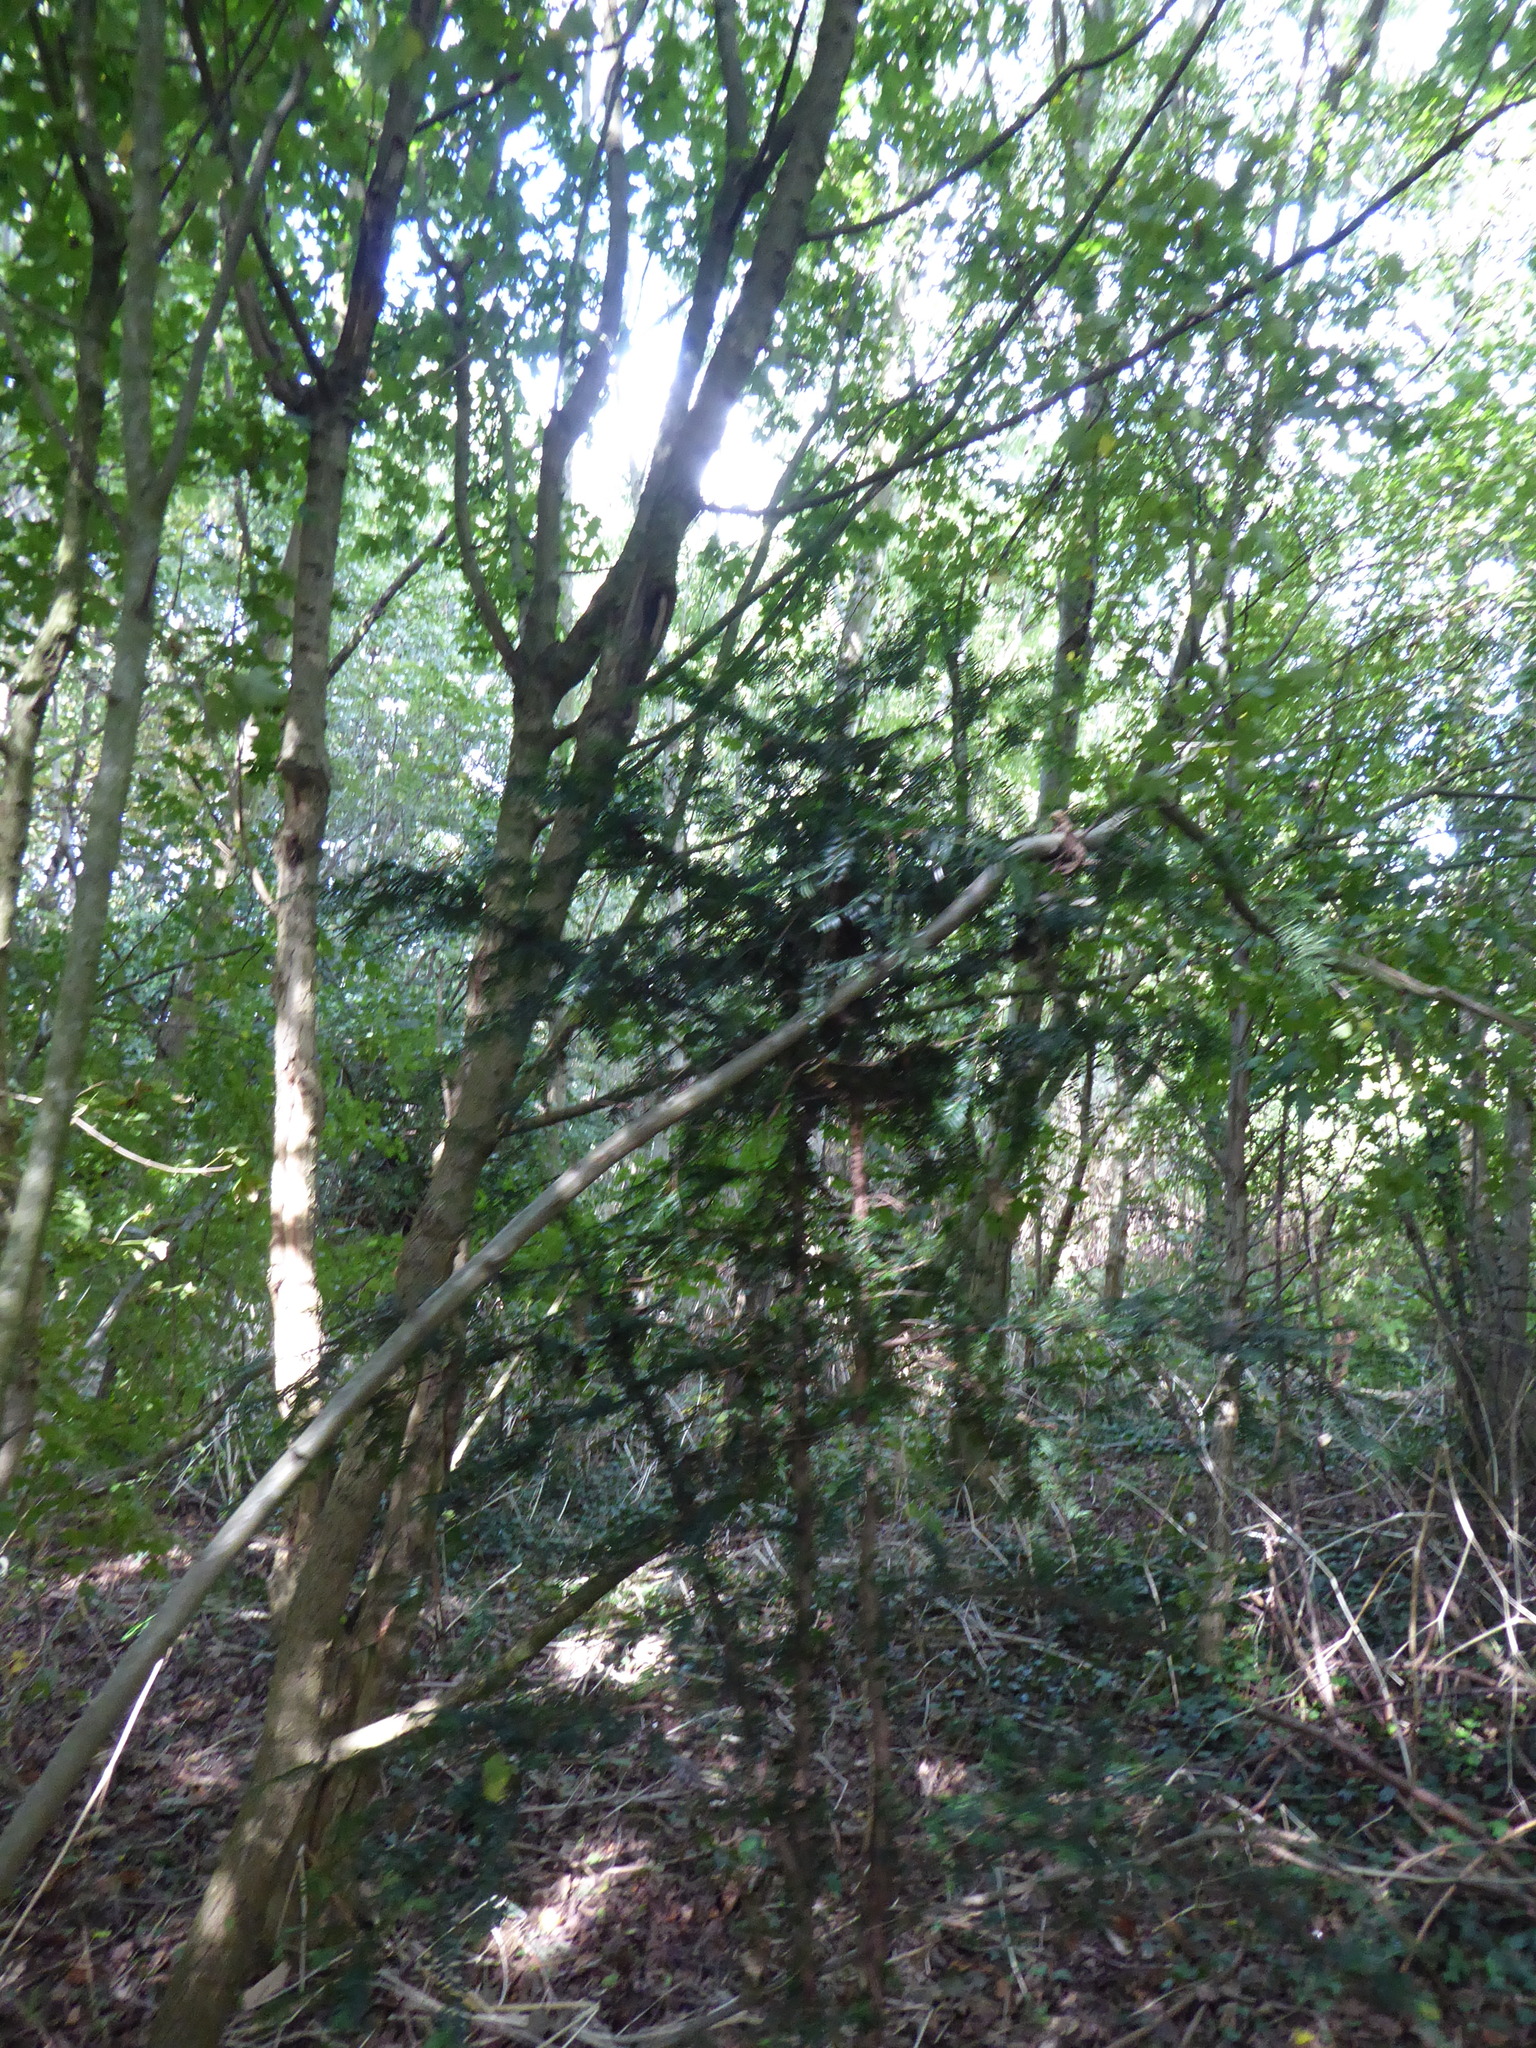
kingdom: Plantae
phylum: Tracheophyta
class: Pinopsida
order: Pinales
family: Taxaceae
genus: Taxus
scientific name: Taxus baccata
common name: Yew
